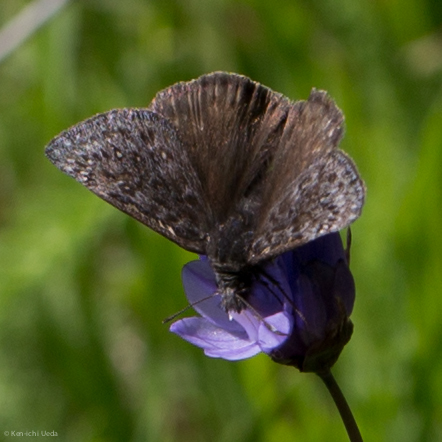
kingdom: Animalia
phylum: Arthropoda
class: Insecta
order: Lepidoptera
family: Hesperiidae
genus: Erynnis
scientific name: Erynnis propertius
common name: Propertius duskywing
